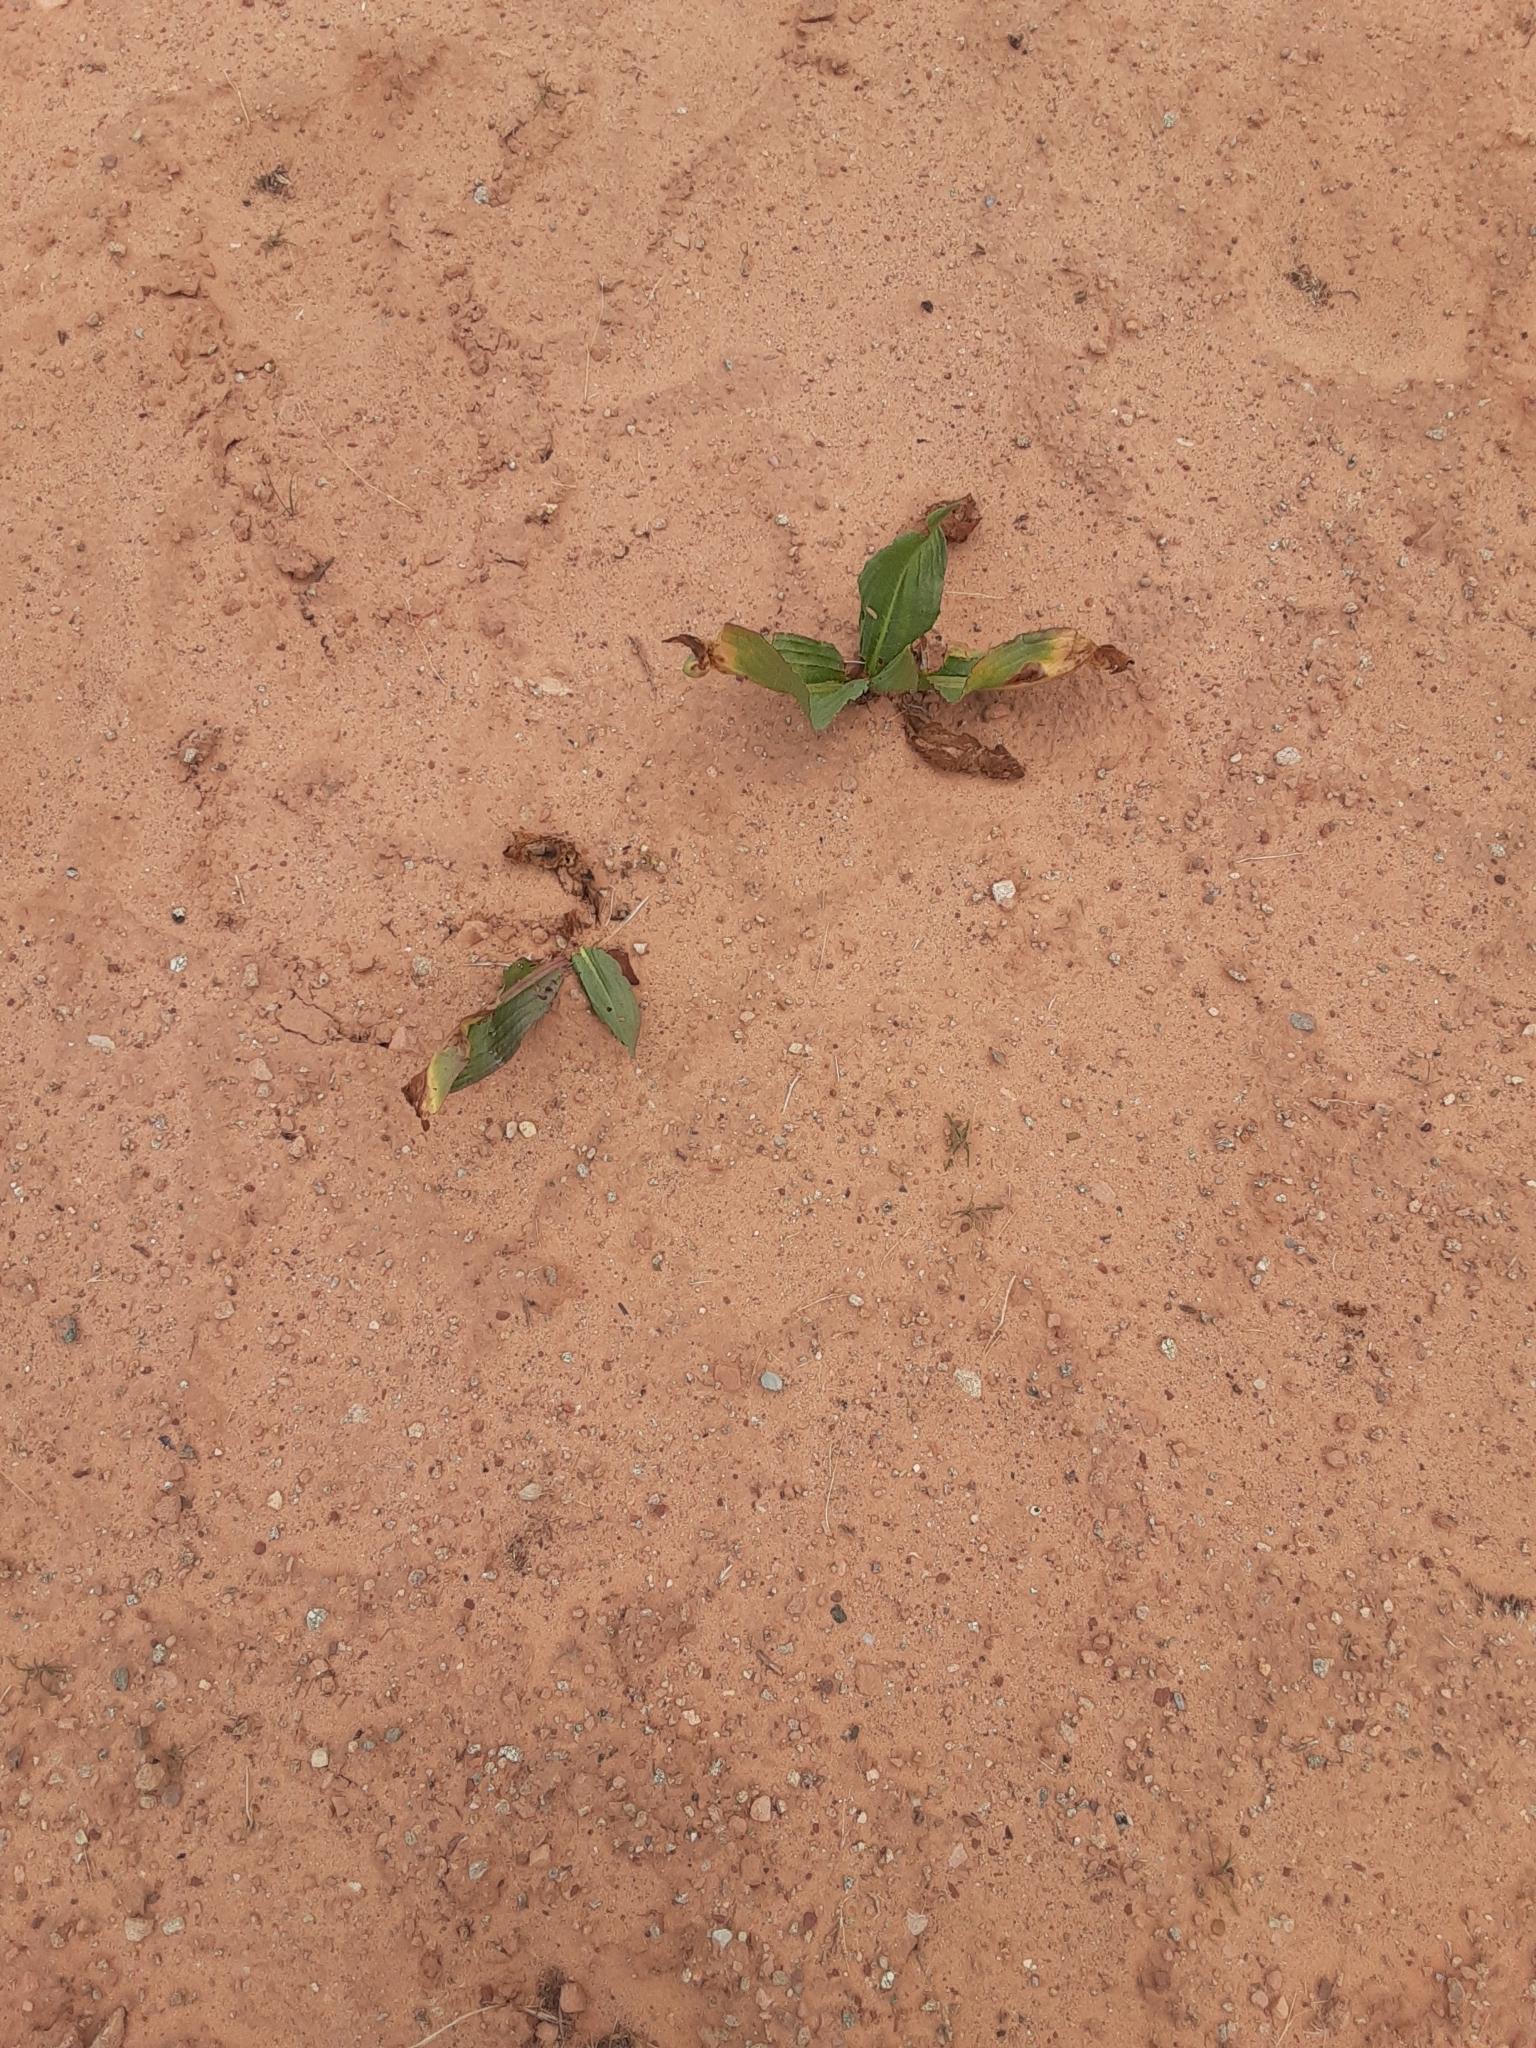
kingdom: Plantae
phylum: Tracheophyta
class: Magnoliopsida
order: Caryophyllales
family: Polygonaceae
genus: Rumex
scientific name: Rumex hymenosepalus
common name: Ganagra
